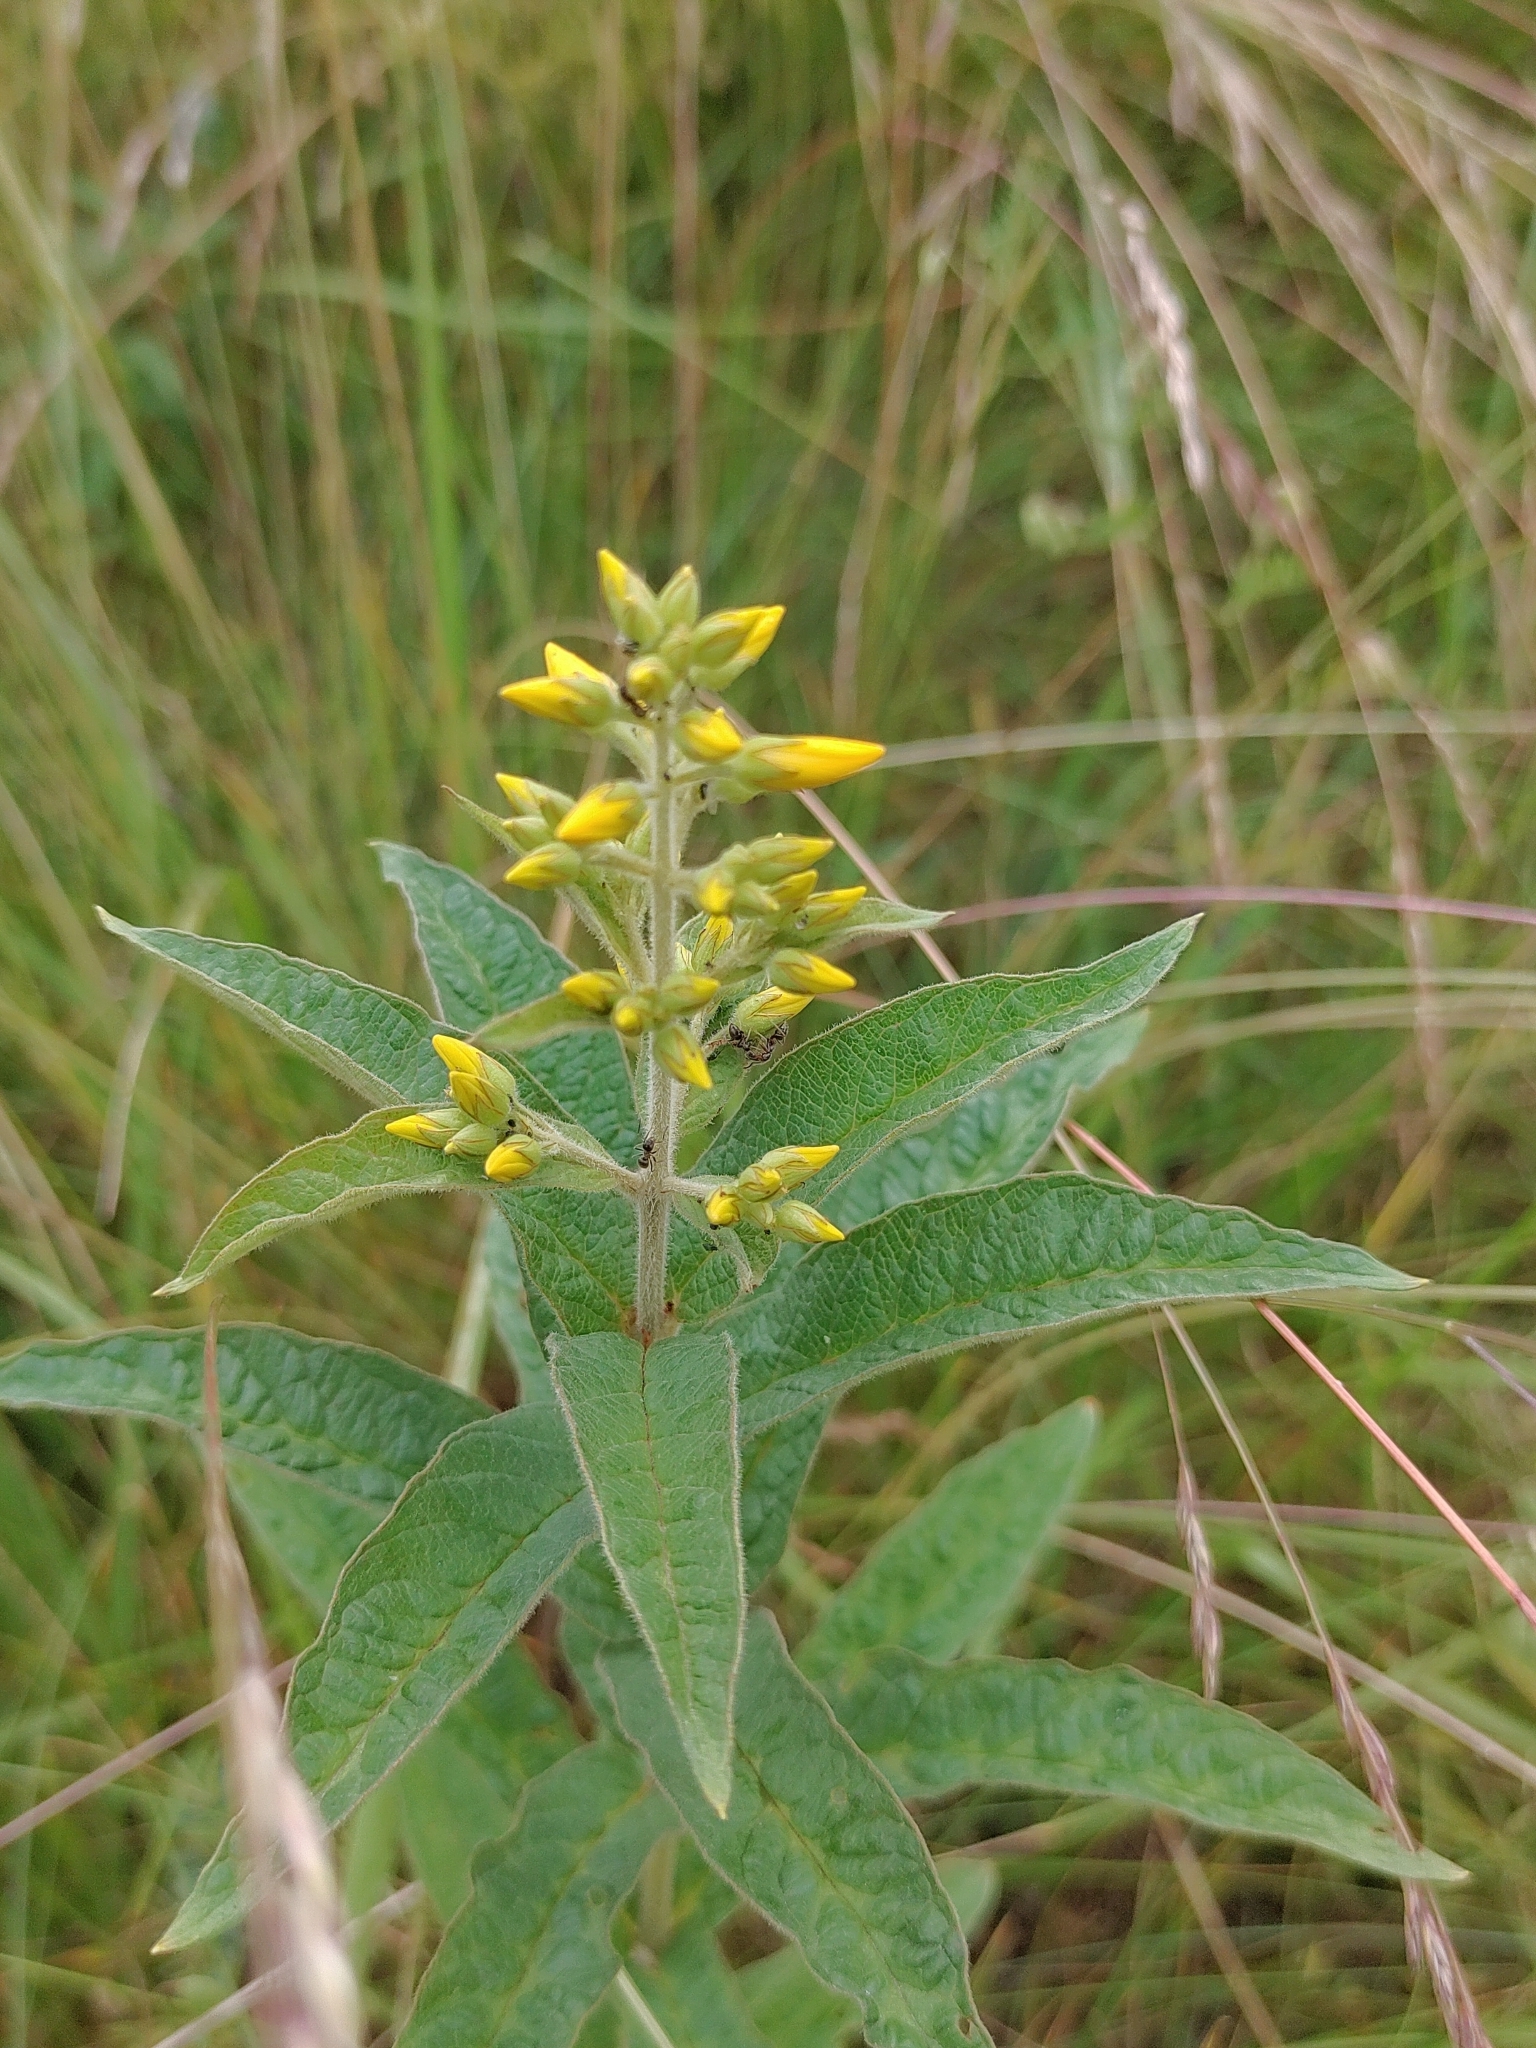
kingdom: Plantae
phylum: Tracheophyta
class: Magnoliopsida
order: Ericales
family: Primulaceae
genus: Lysimachia
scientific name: Lysimachia vulgaris
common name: Yellow loosestrife
